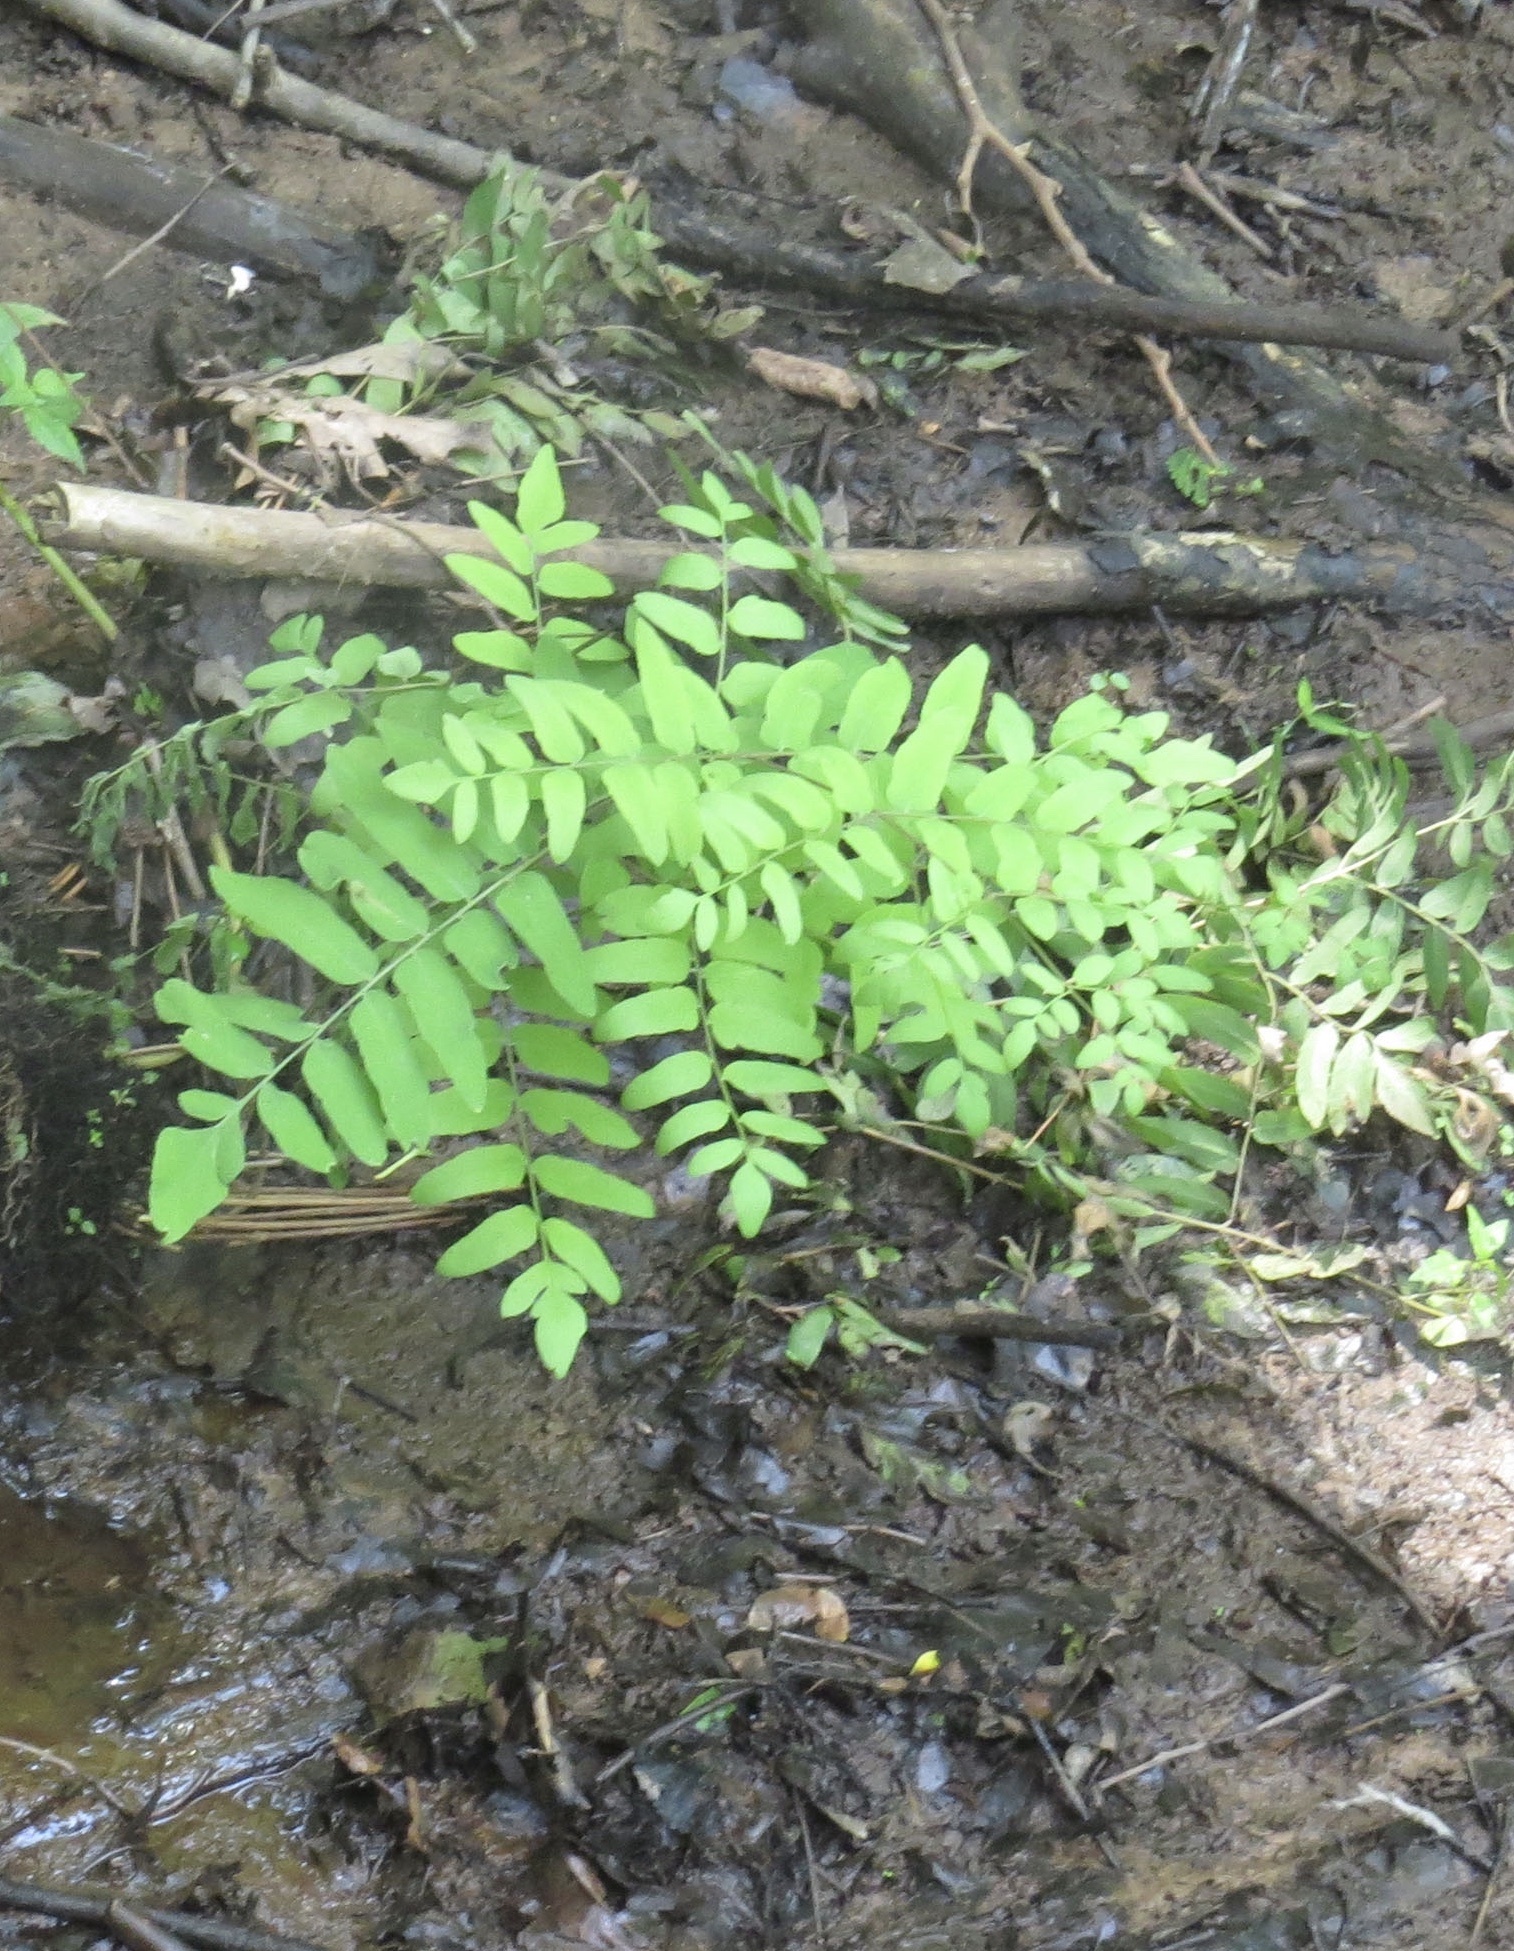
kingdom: Plantae
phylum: Tracheophyta
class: Polypodiopsida
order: Osmundales
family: Osmundaceae
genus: Osmunda
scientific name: Osmunda spectabilis
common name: American royal fern
